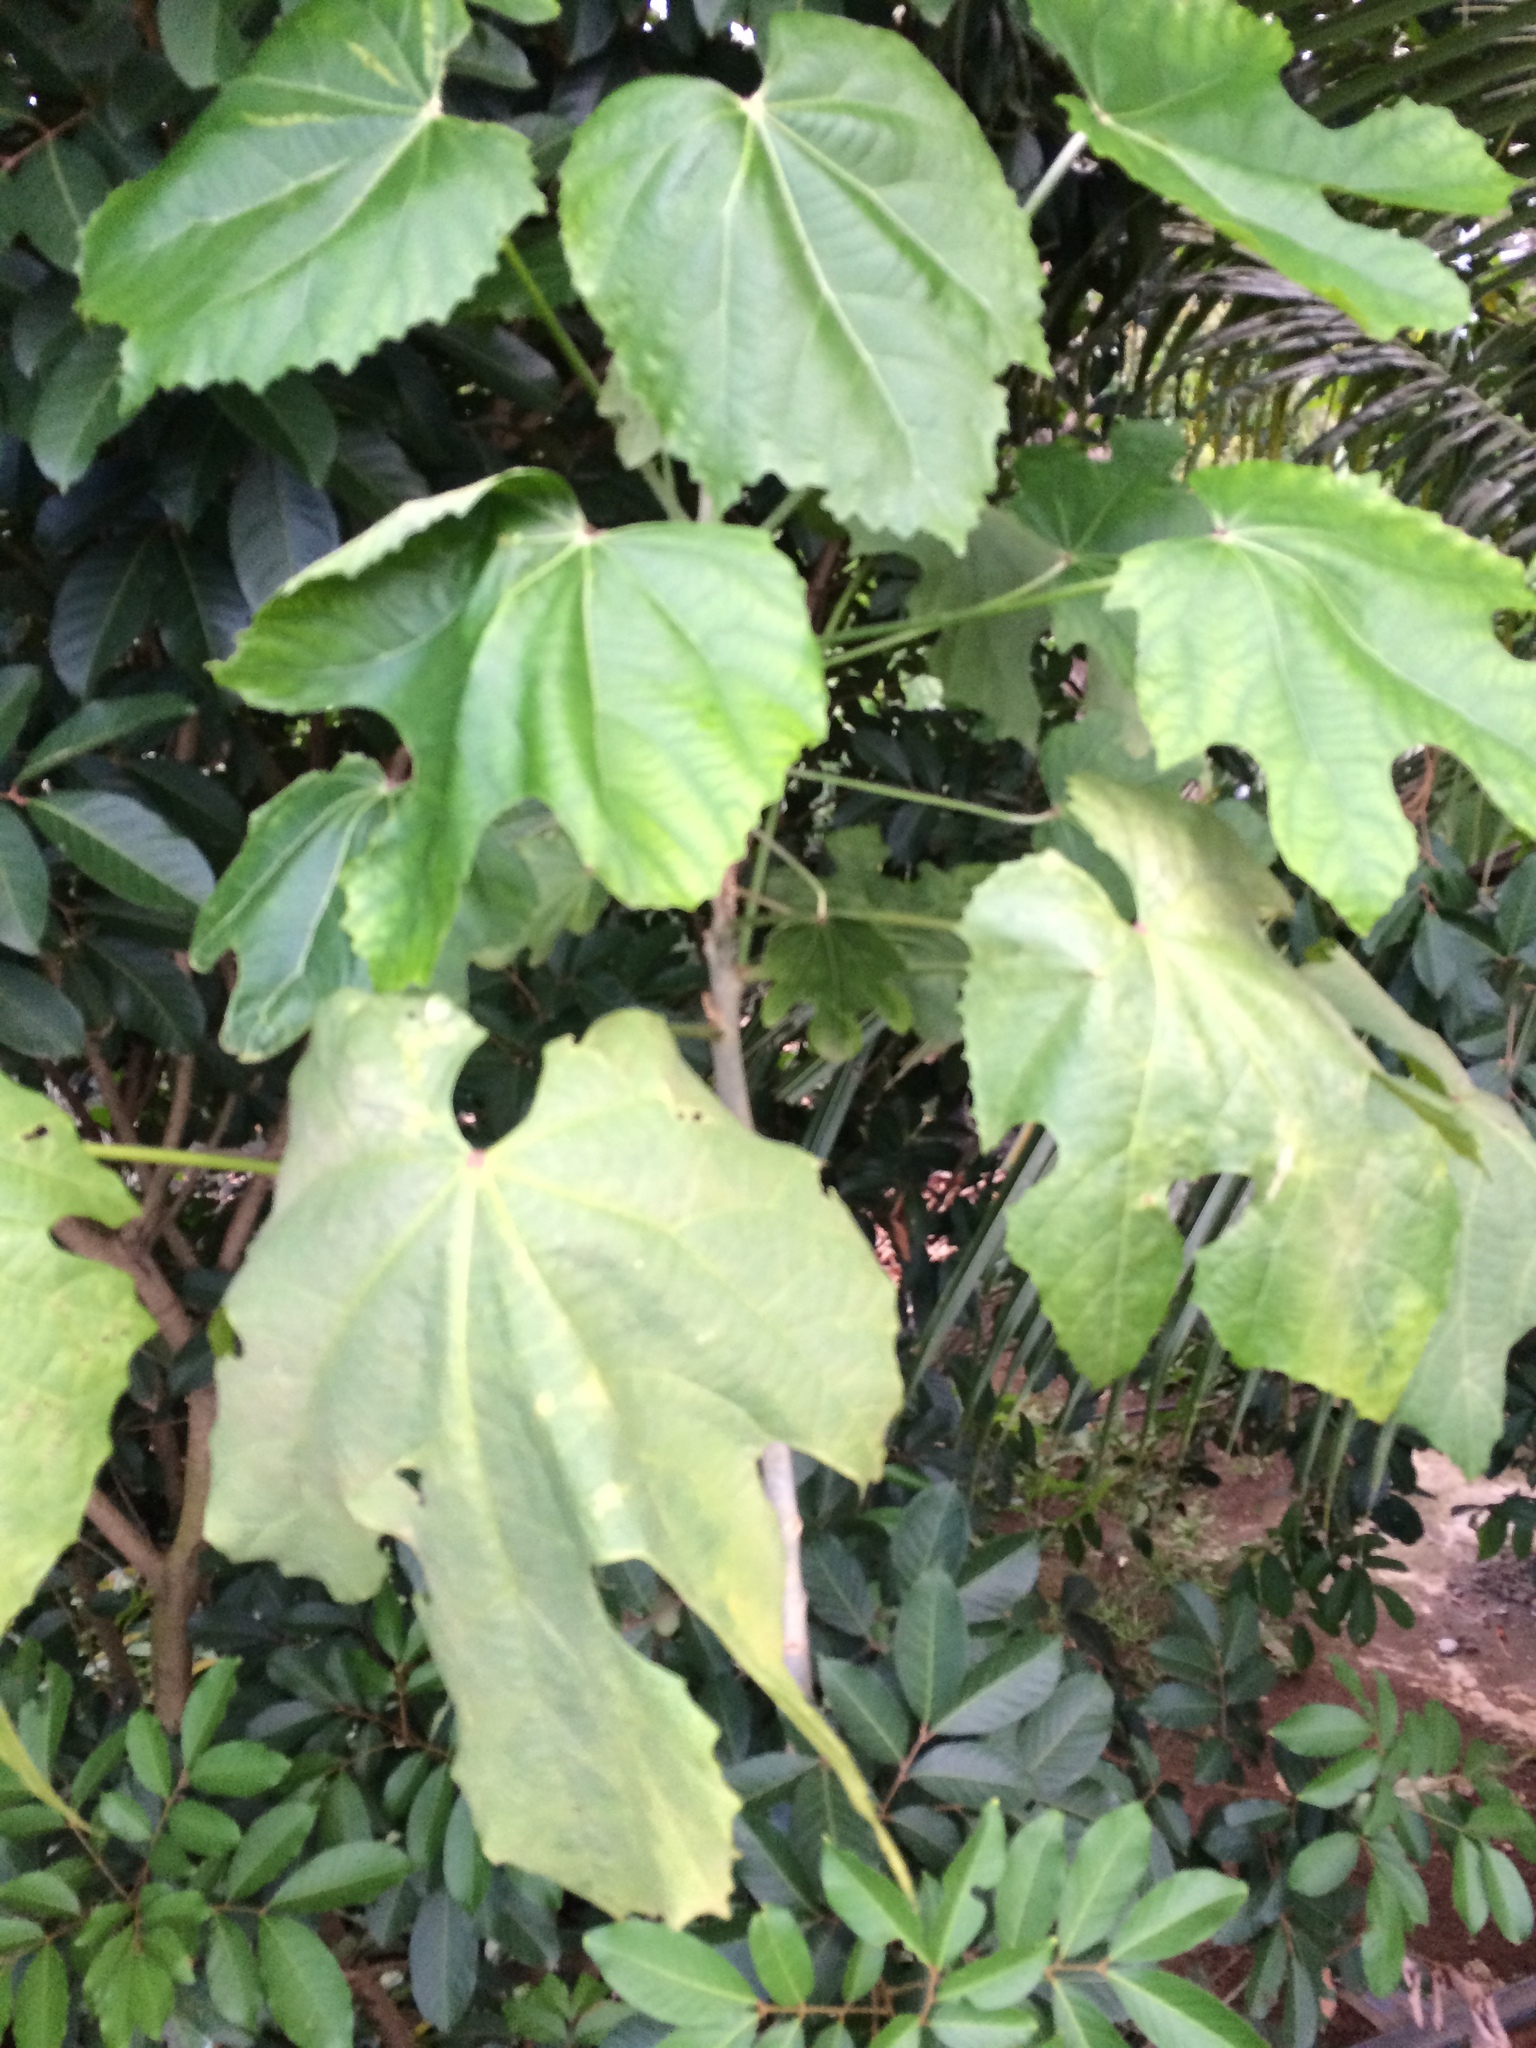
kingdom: Plantae
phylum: Tracheophyta
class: Magnoliopsida
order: Malpighiales
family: Euphorbiaceae
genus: Melanolepis
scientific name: Melanolepis multiglandulosa
